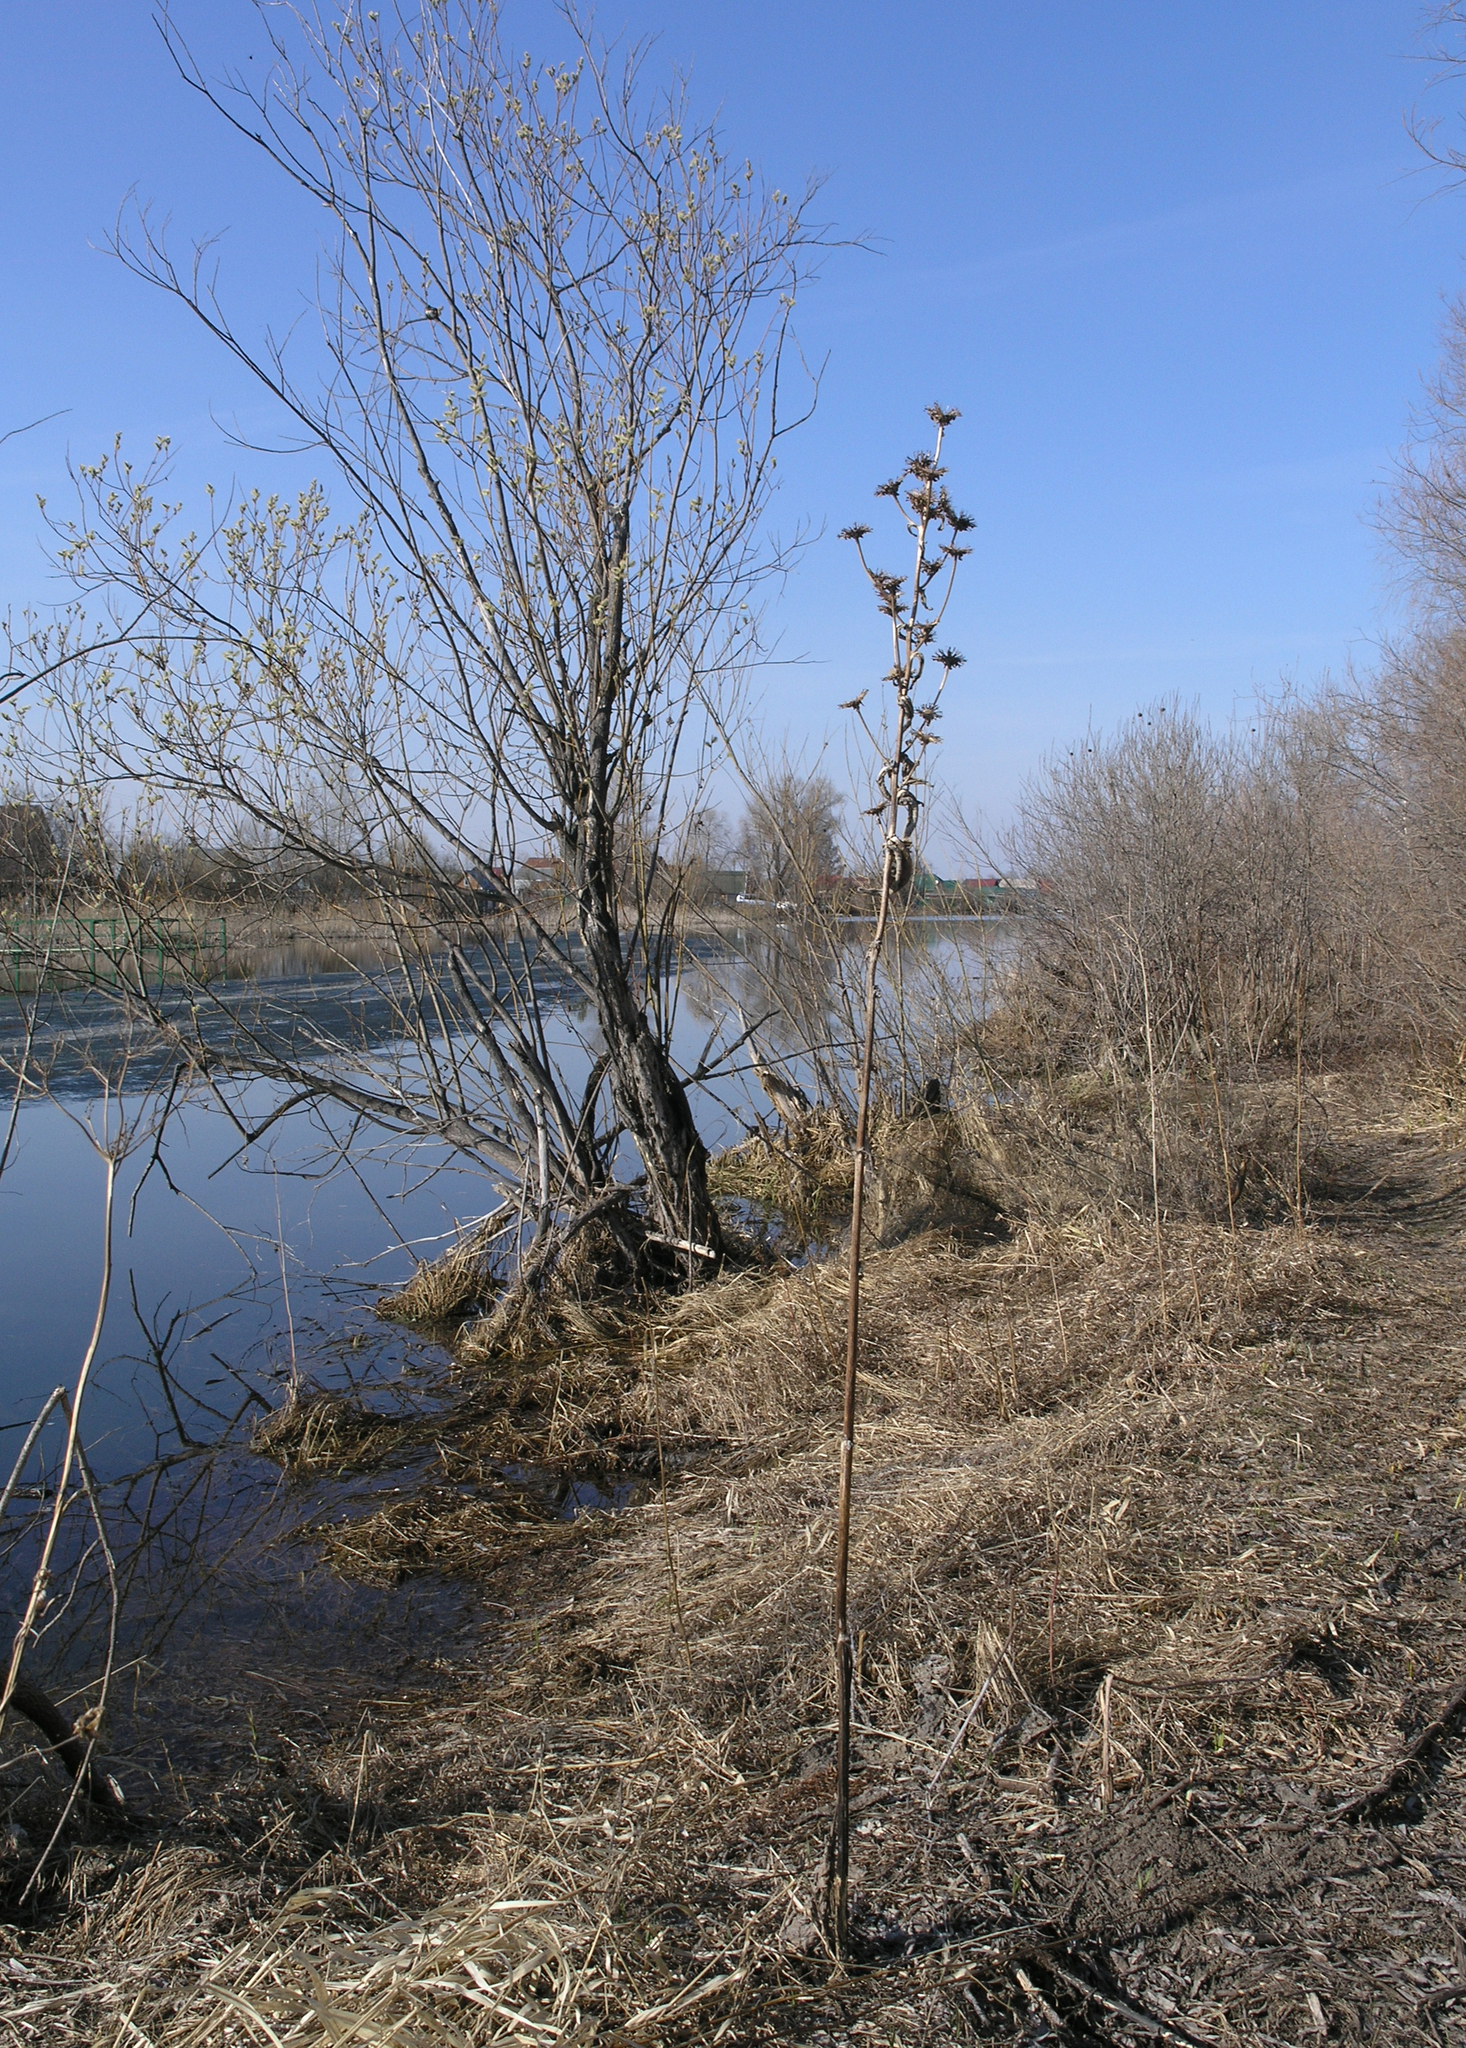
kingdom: Plantae
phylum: Tracheophyta
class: Magnoliopsida
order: Asterales
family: Asteraceae
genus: Inula
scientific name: Inula helenium
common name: Elecampane
